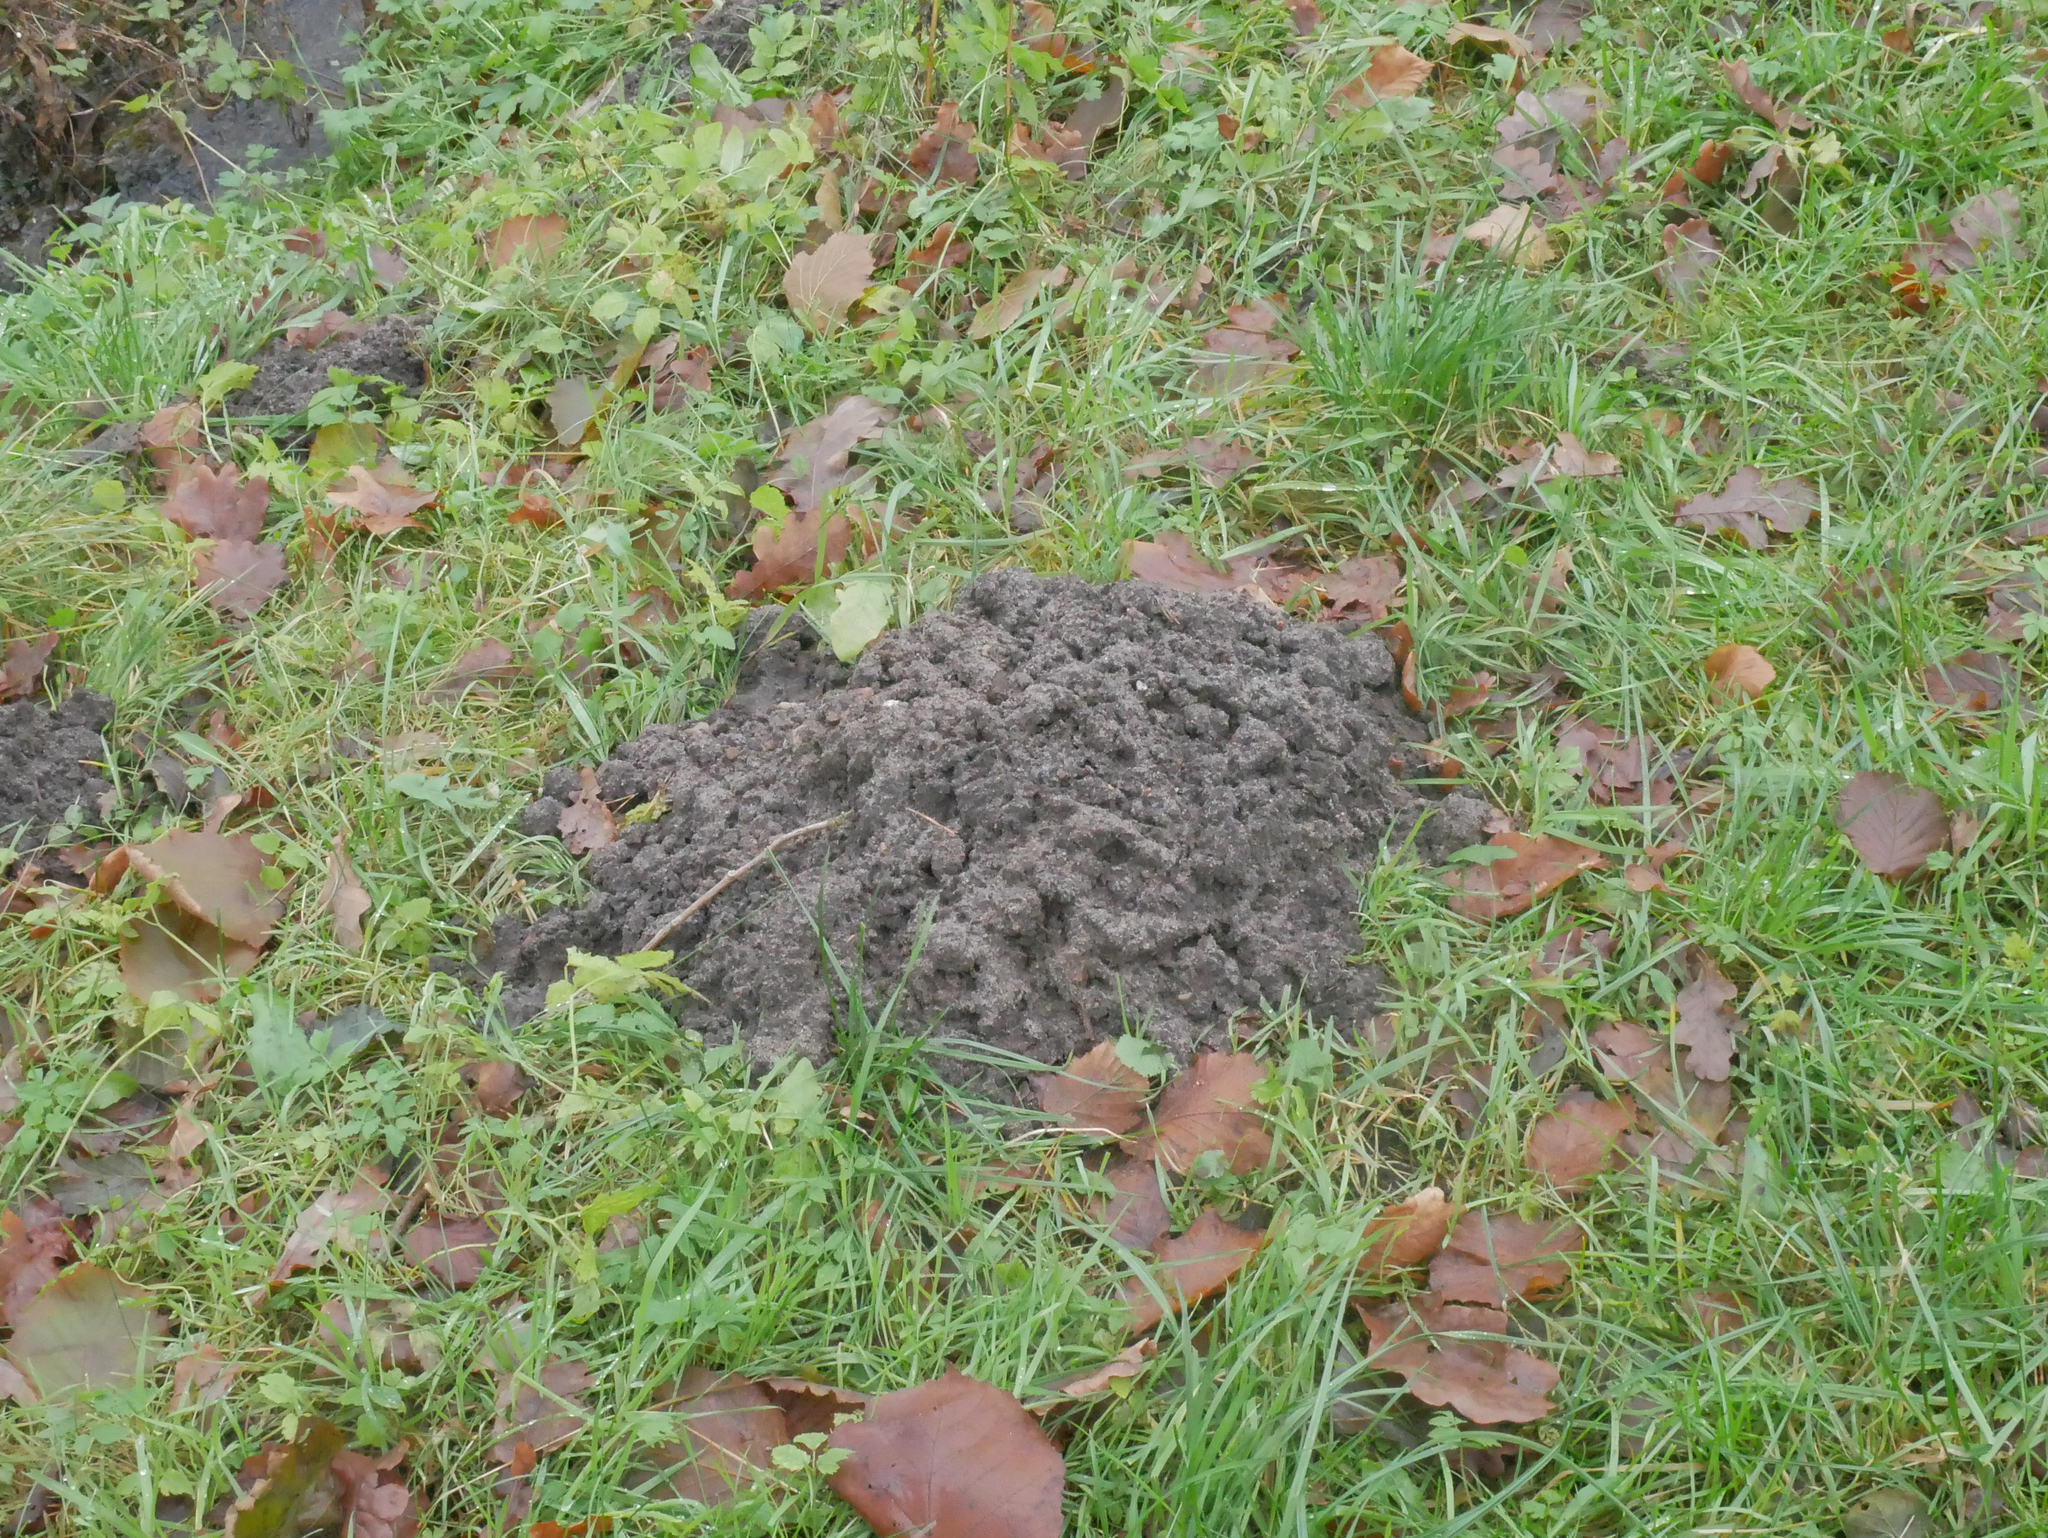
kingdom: Animalia
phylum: Chordata
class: Mammalia
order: Soricomorpha
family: Talpidae
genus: Talpa
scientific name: Talpa europaea
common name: European mole
